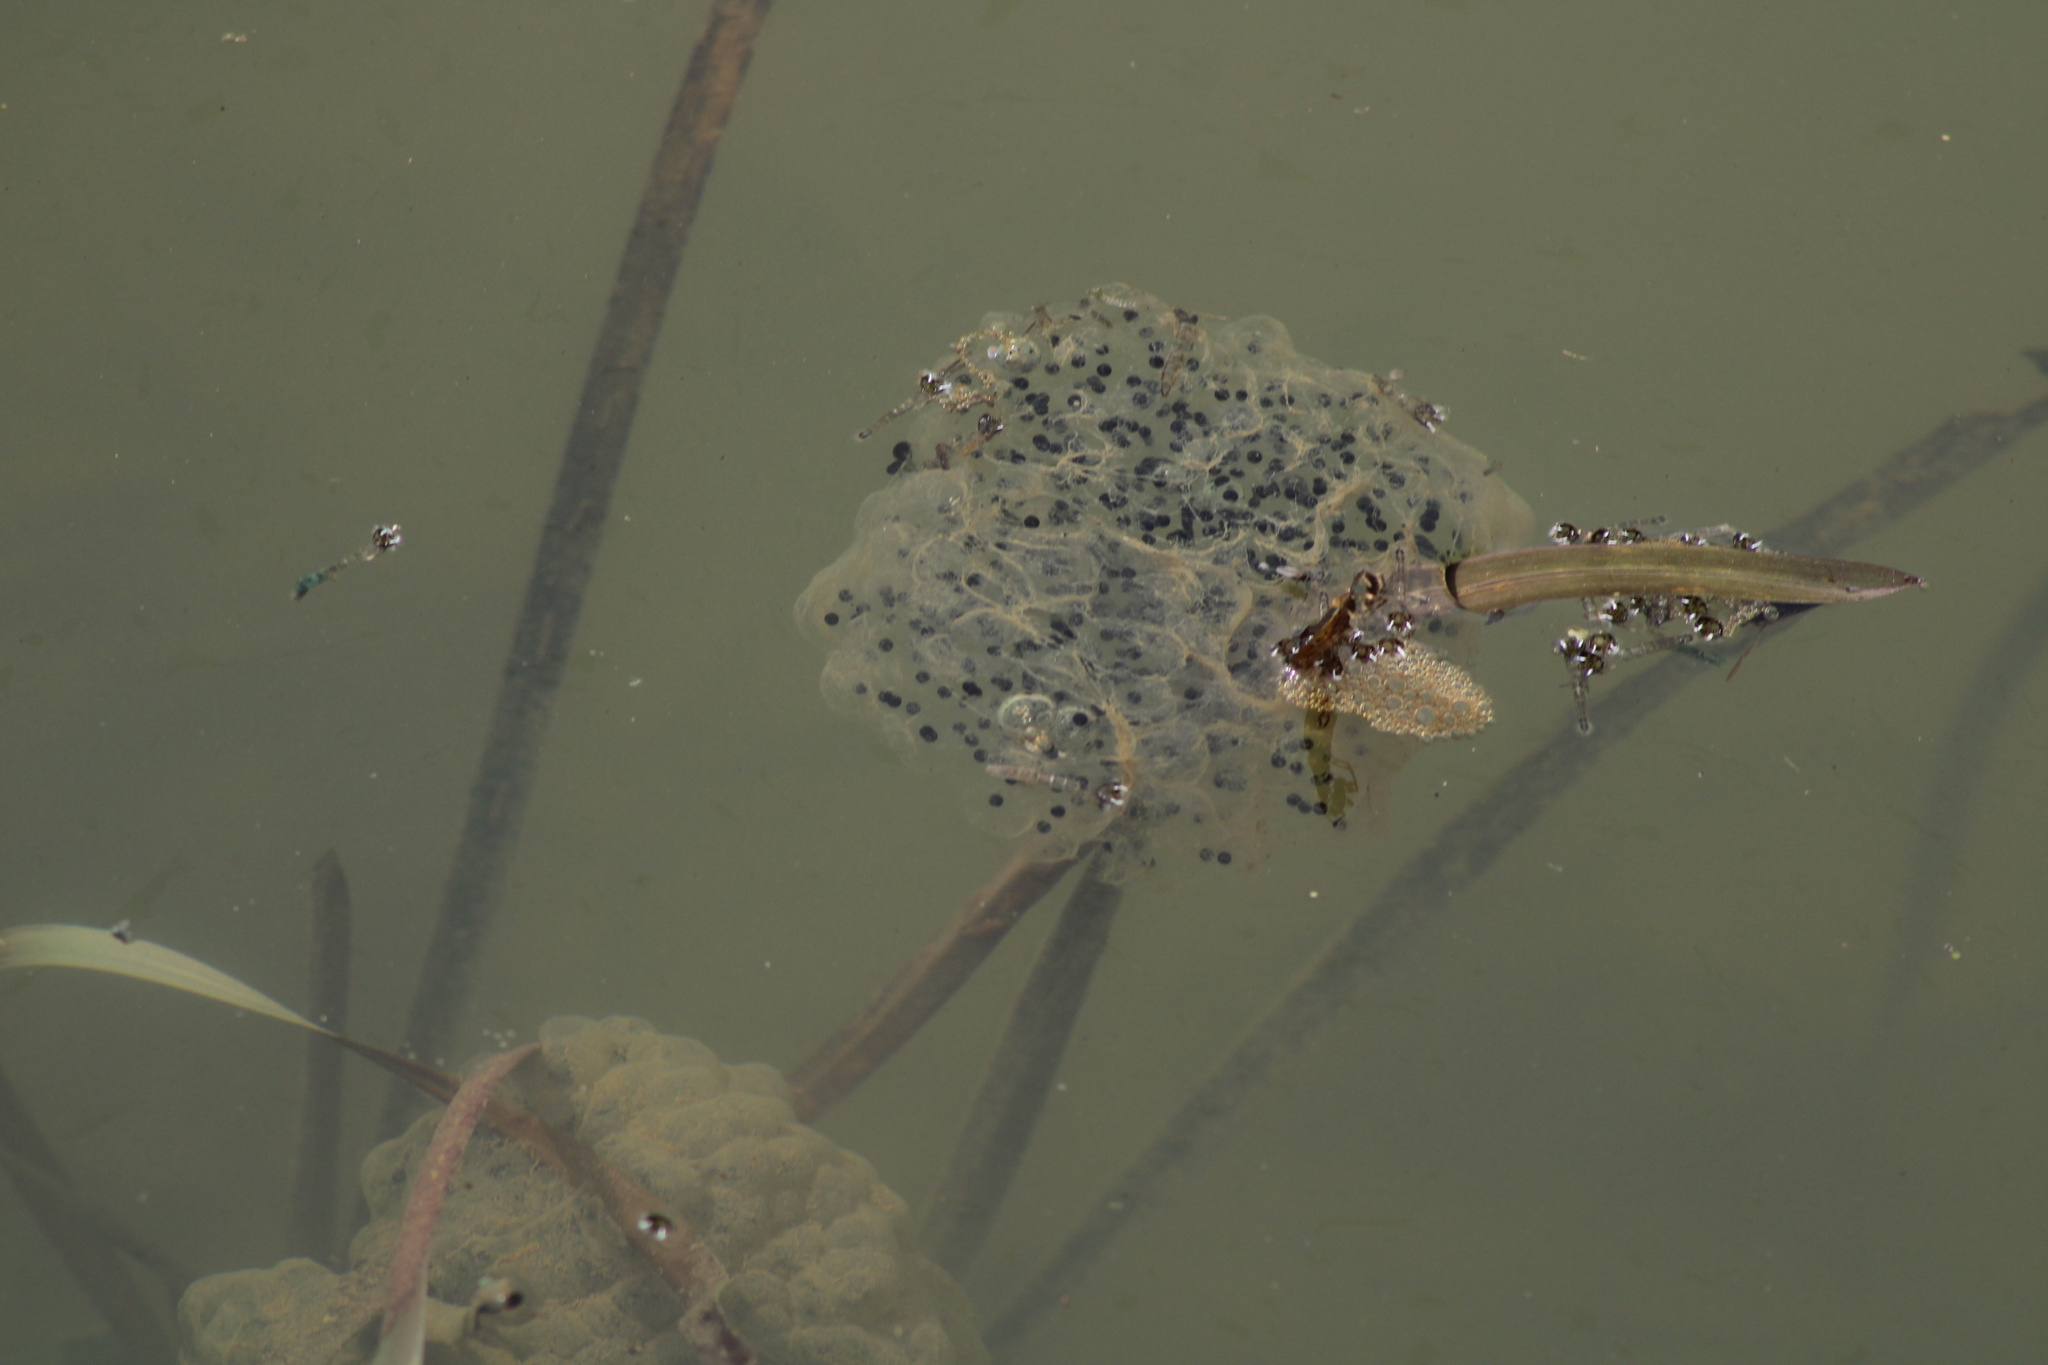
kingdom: Animalia
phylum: Chordata
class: Amphibia
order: Anura
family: Ranidae
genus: Rana
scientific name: Rana dalmatina
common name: Agile frog
